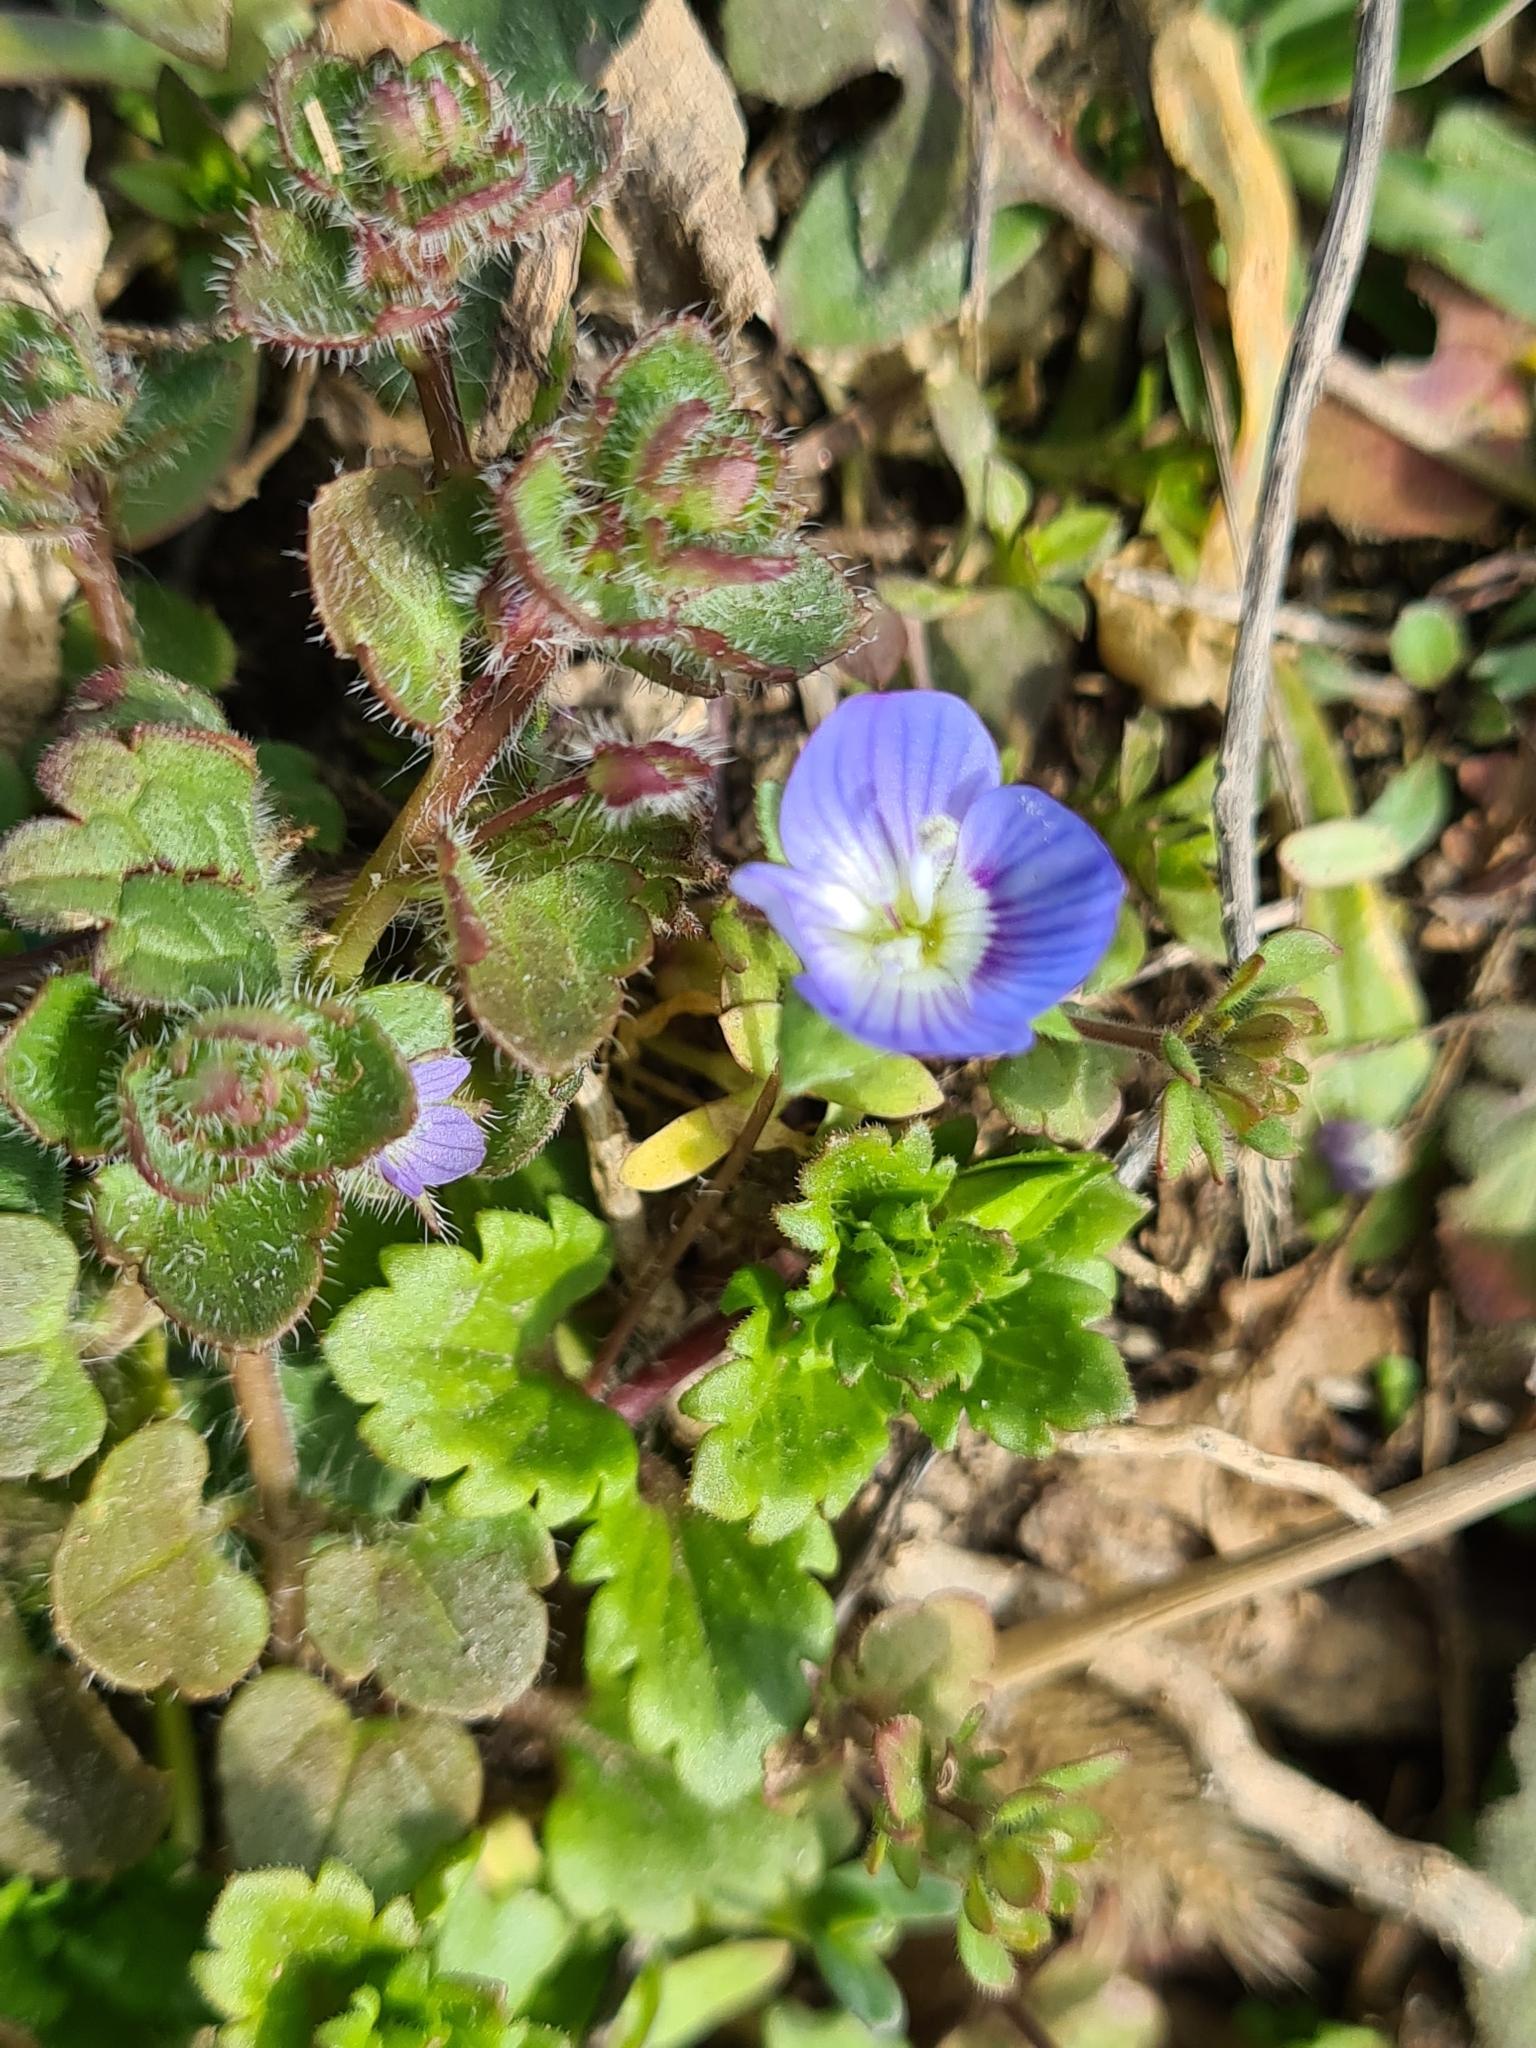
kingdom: Plantae
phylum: Tracheophyta
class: Magnoliopsida
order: Lamiales
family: Plantaginaceae
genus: Veronica
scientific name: Veronica persica
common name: Common field-speedwell
